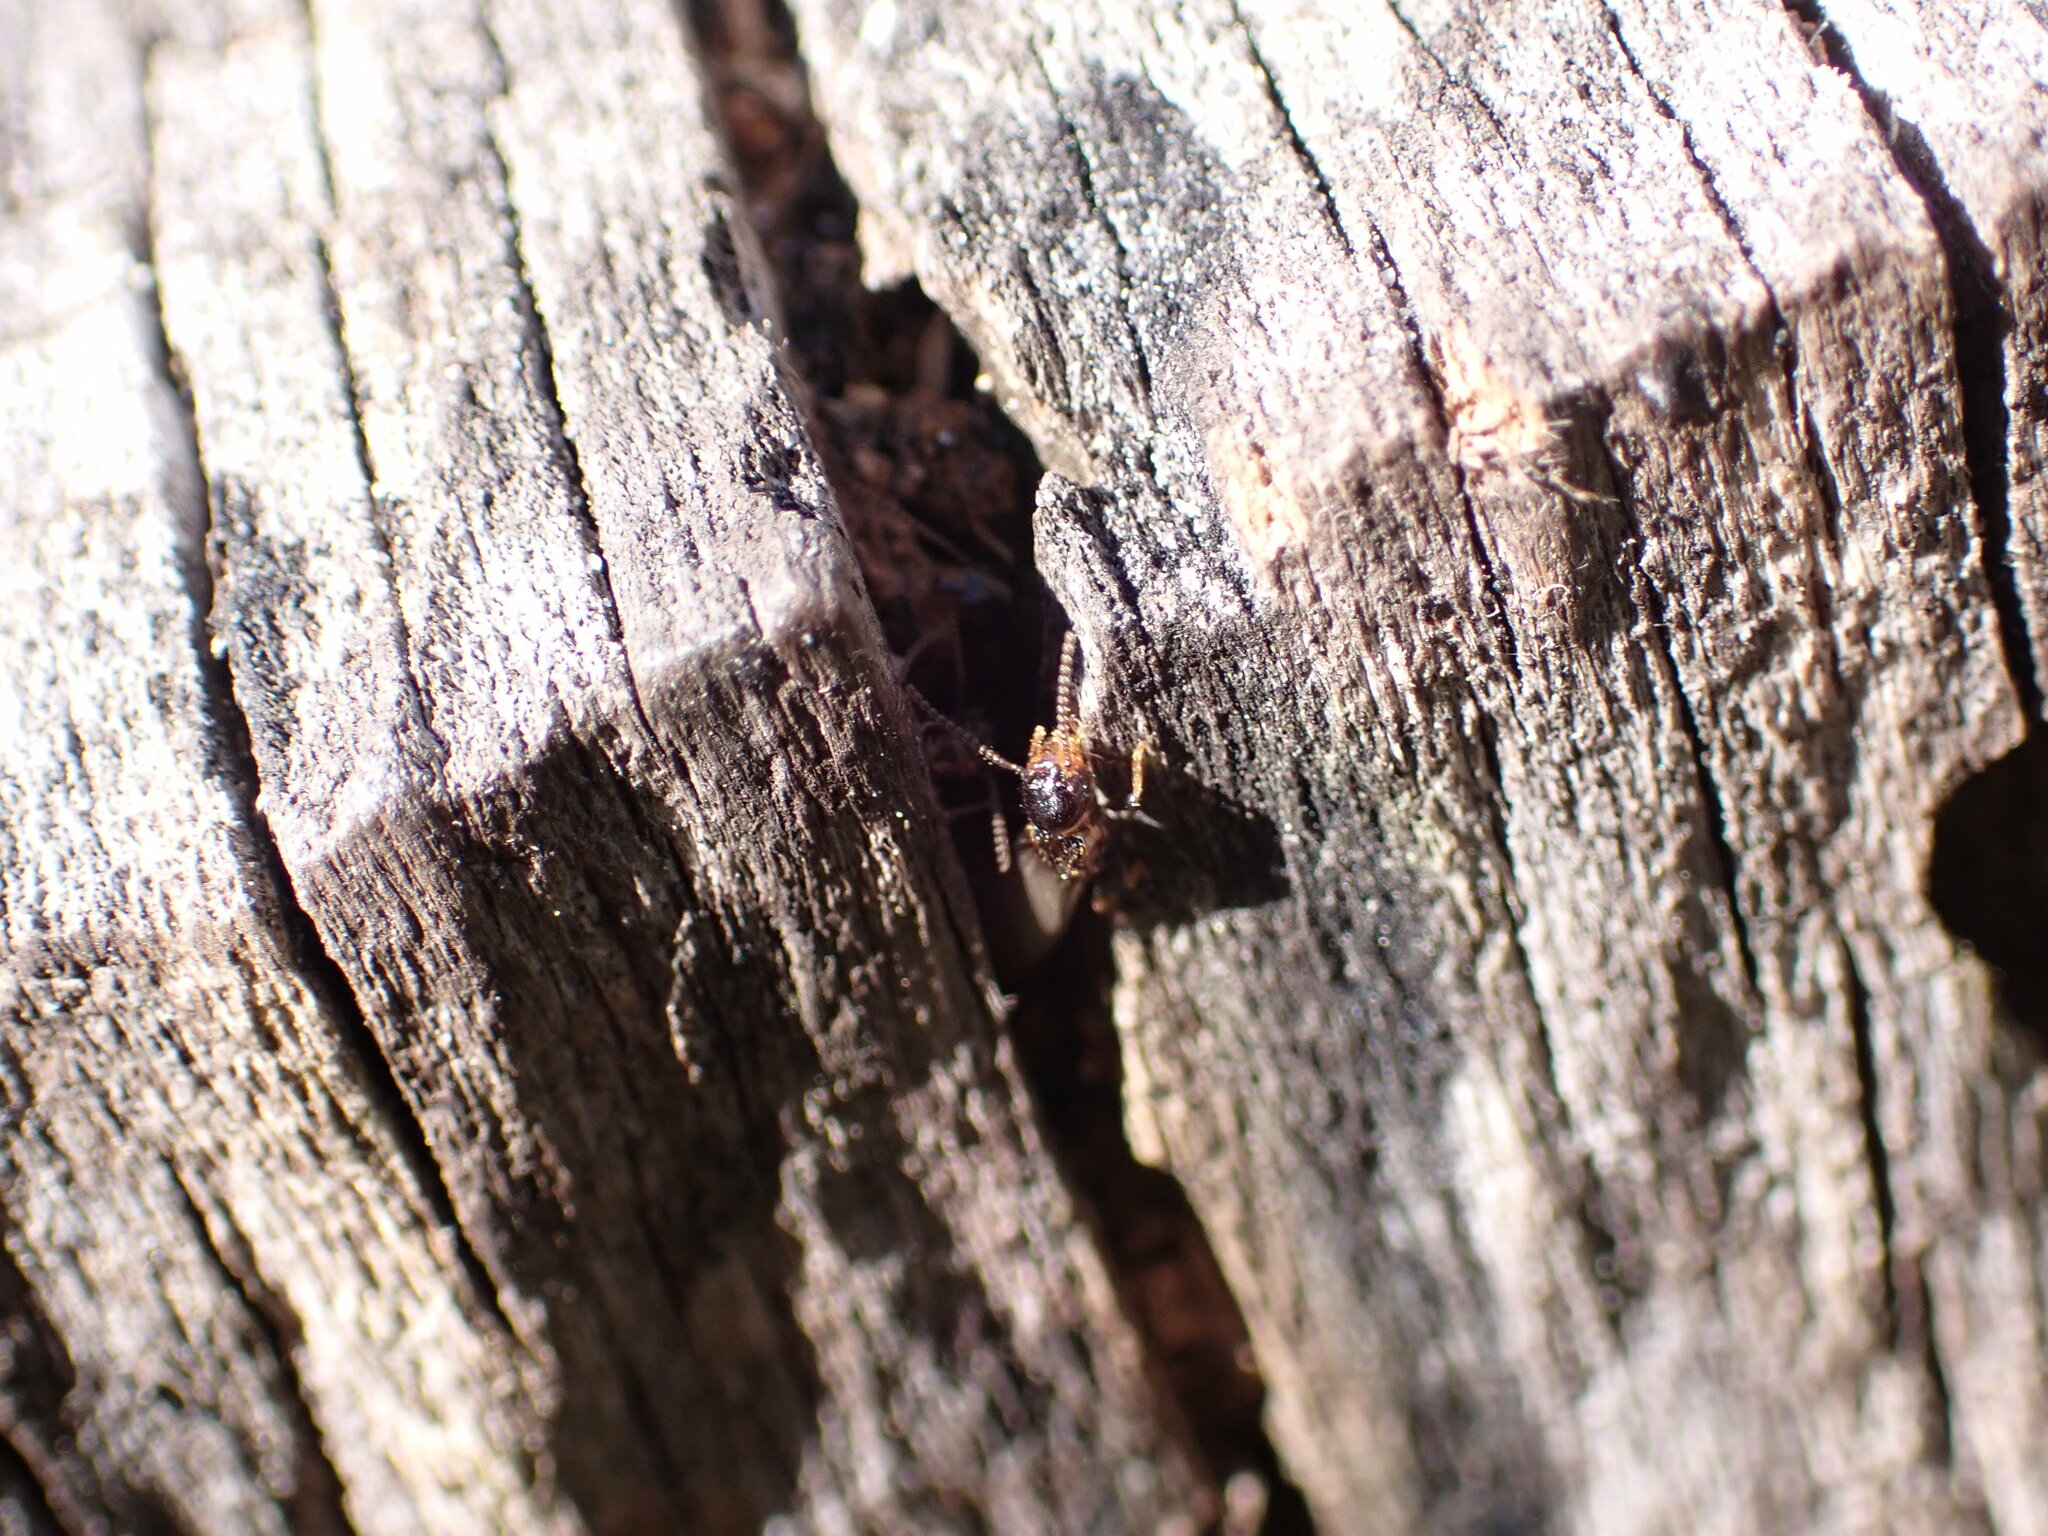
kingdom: Animalia
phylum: Arthropoda
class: Insecta
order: Blattodea
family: Rhinotermitidae
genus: Reticulitermes
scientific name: Reticulitermes flavipes
